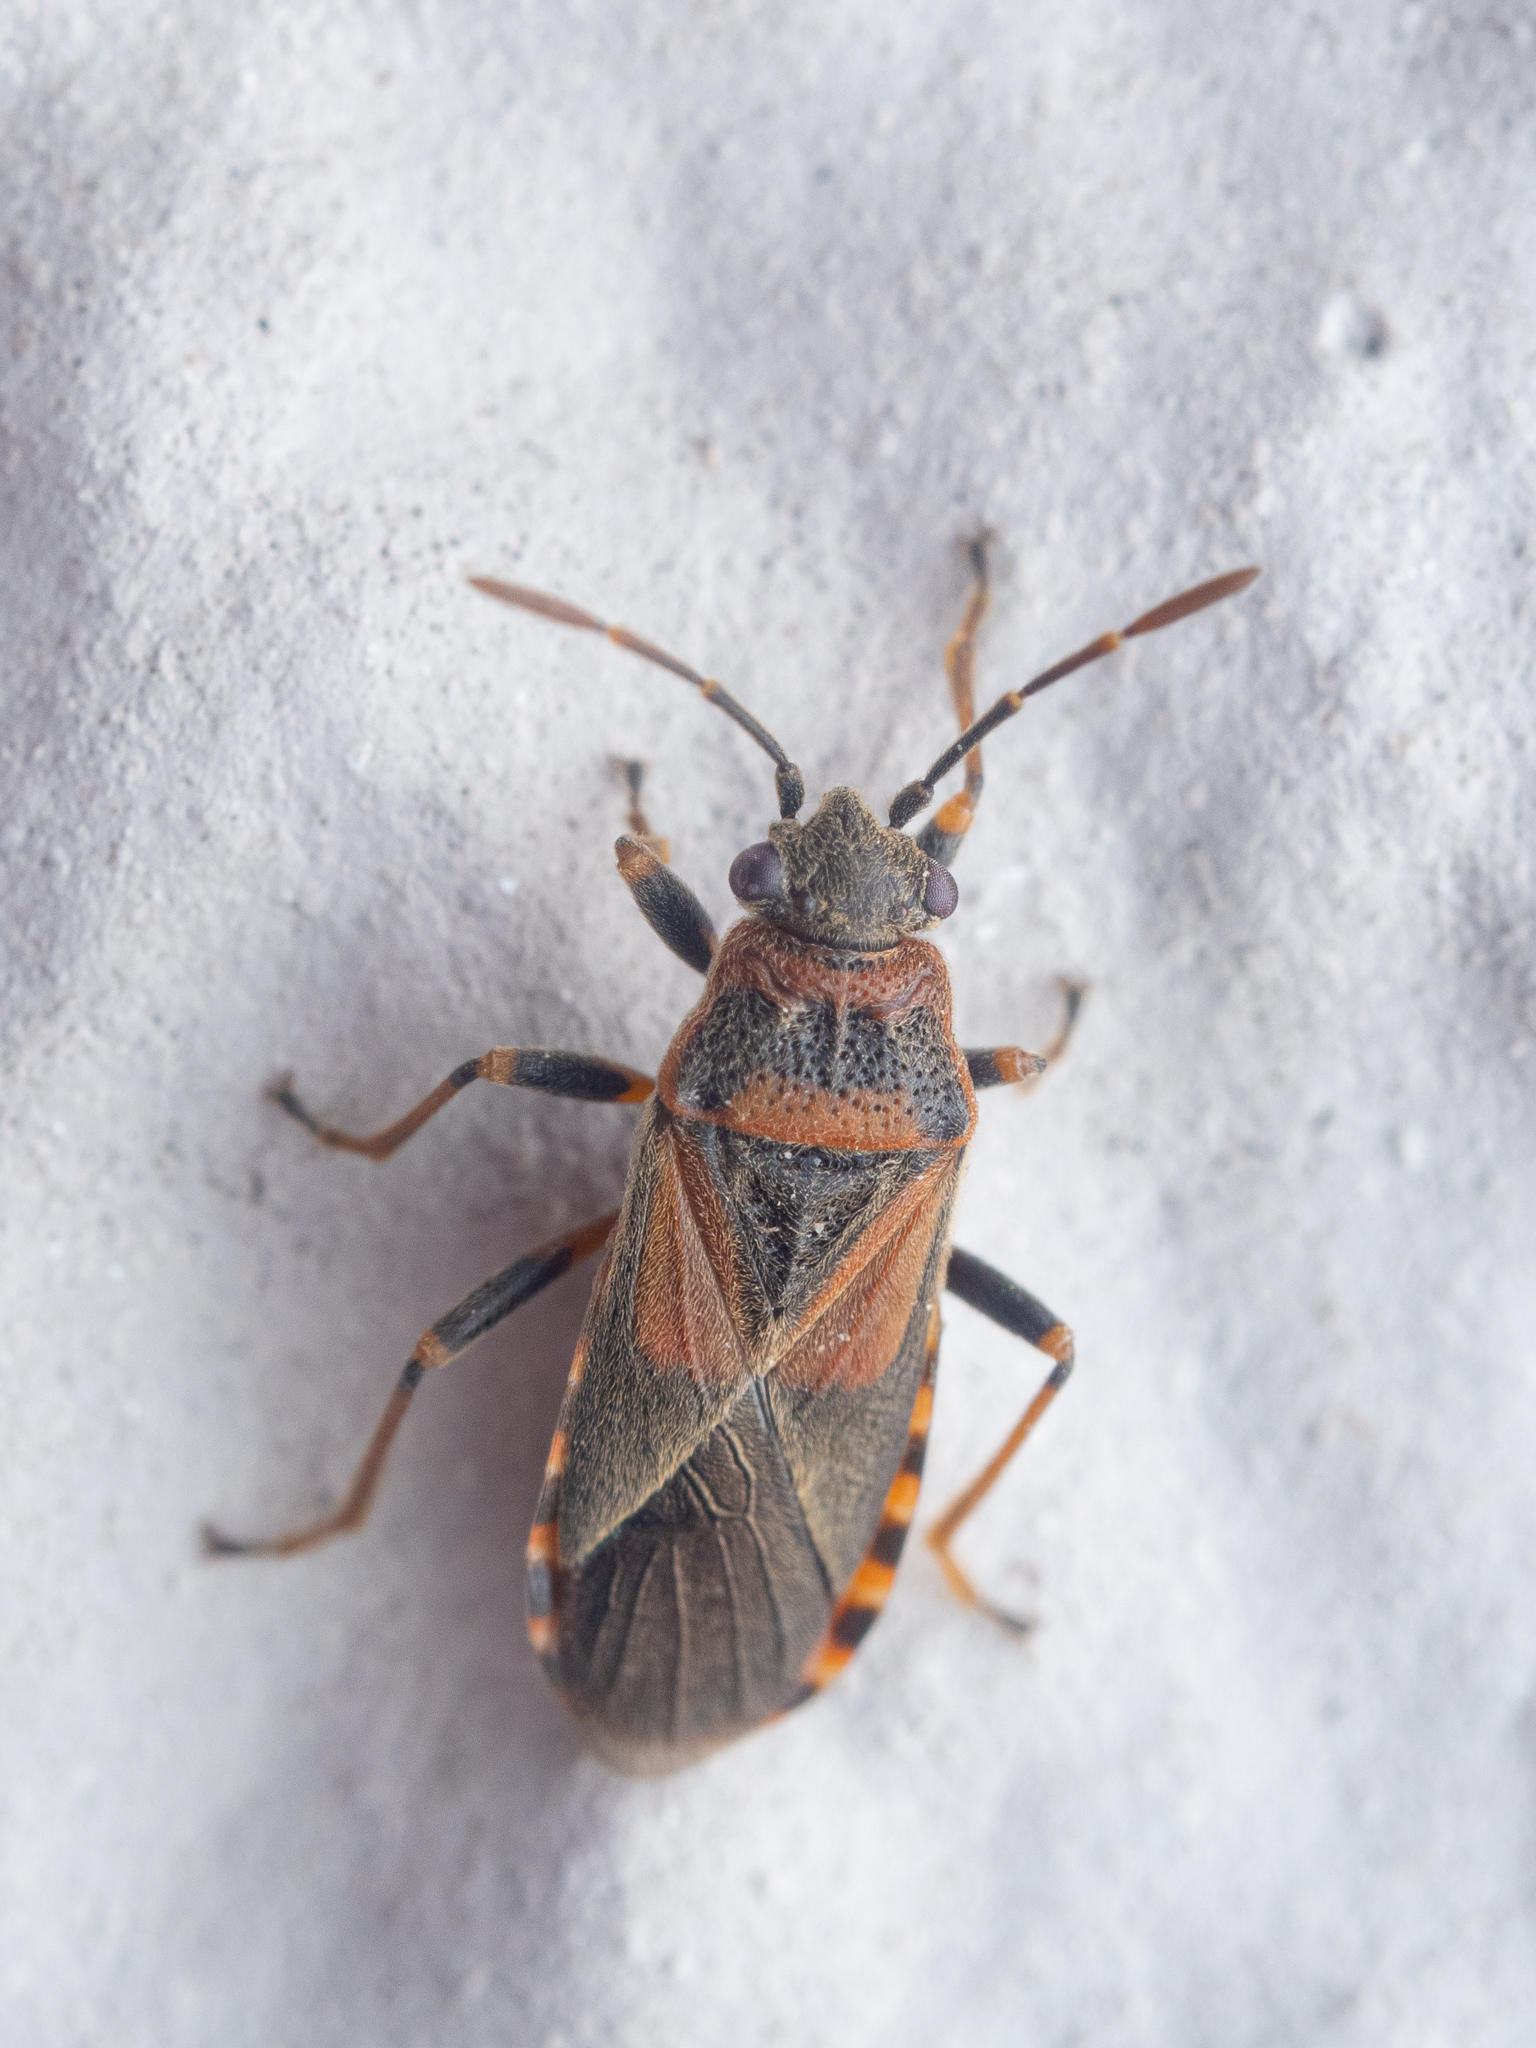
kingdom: Animalia
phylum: Arthropoda
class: Insecta
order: Hemiptera
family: Lygaeidae
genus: Arocatus
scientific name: Arocatus melanocephalus
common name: Lygaeid bug
